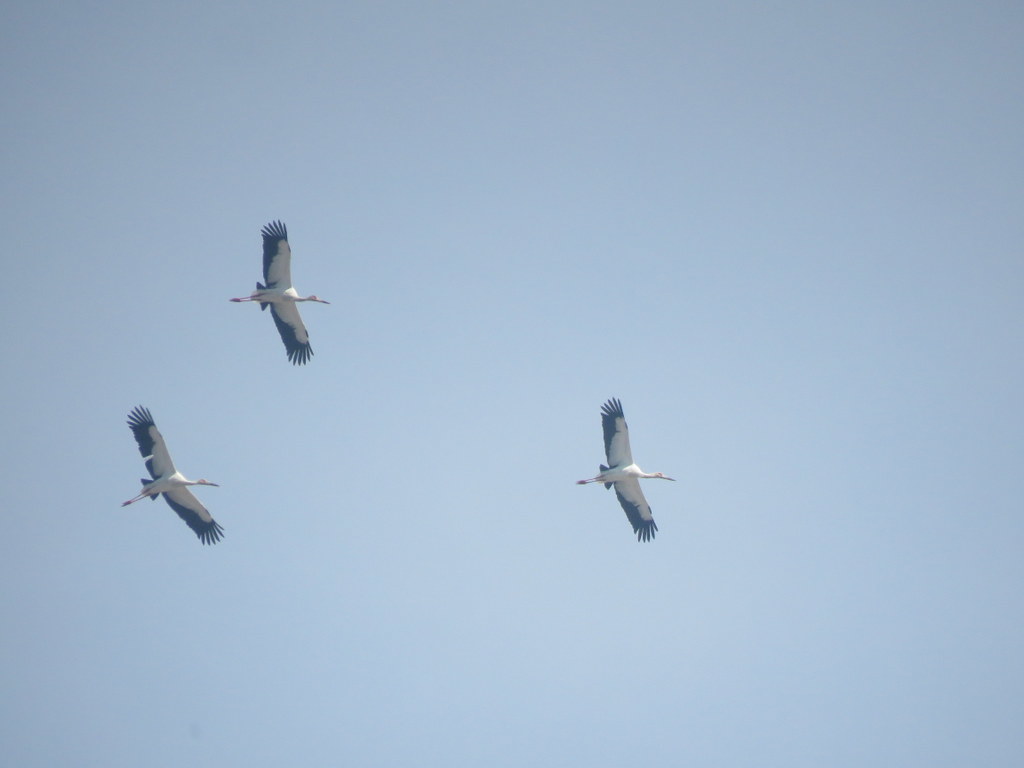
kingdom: Animalia
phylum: Chordata
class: Aves
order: Ciconiiformes
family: Ciconiidae
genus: Ciconia
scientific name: Ciconia maguari
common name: Maguari stork
